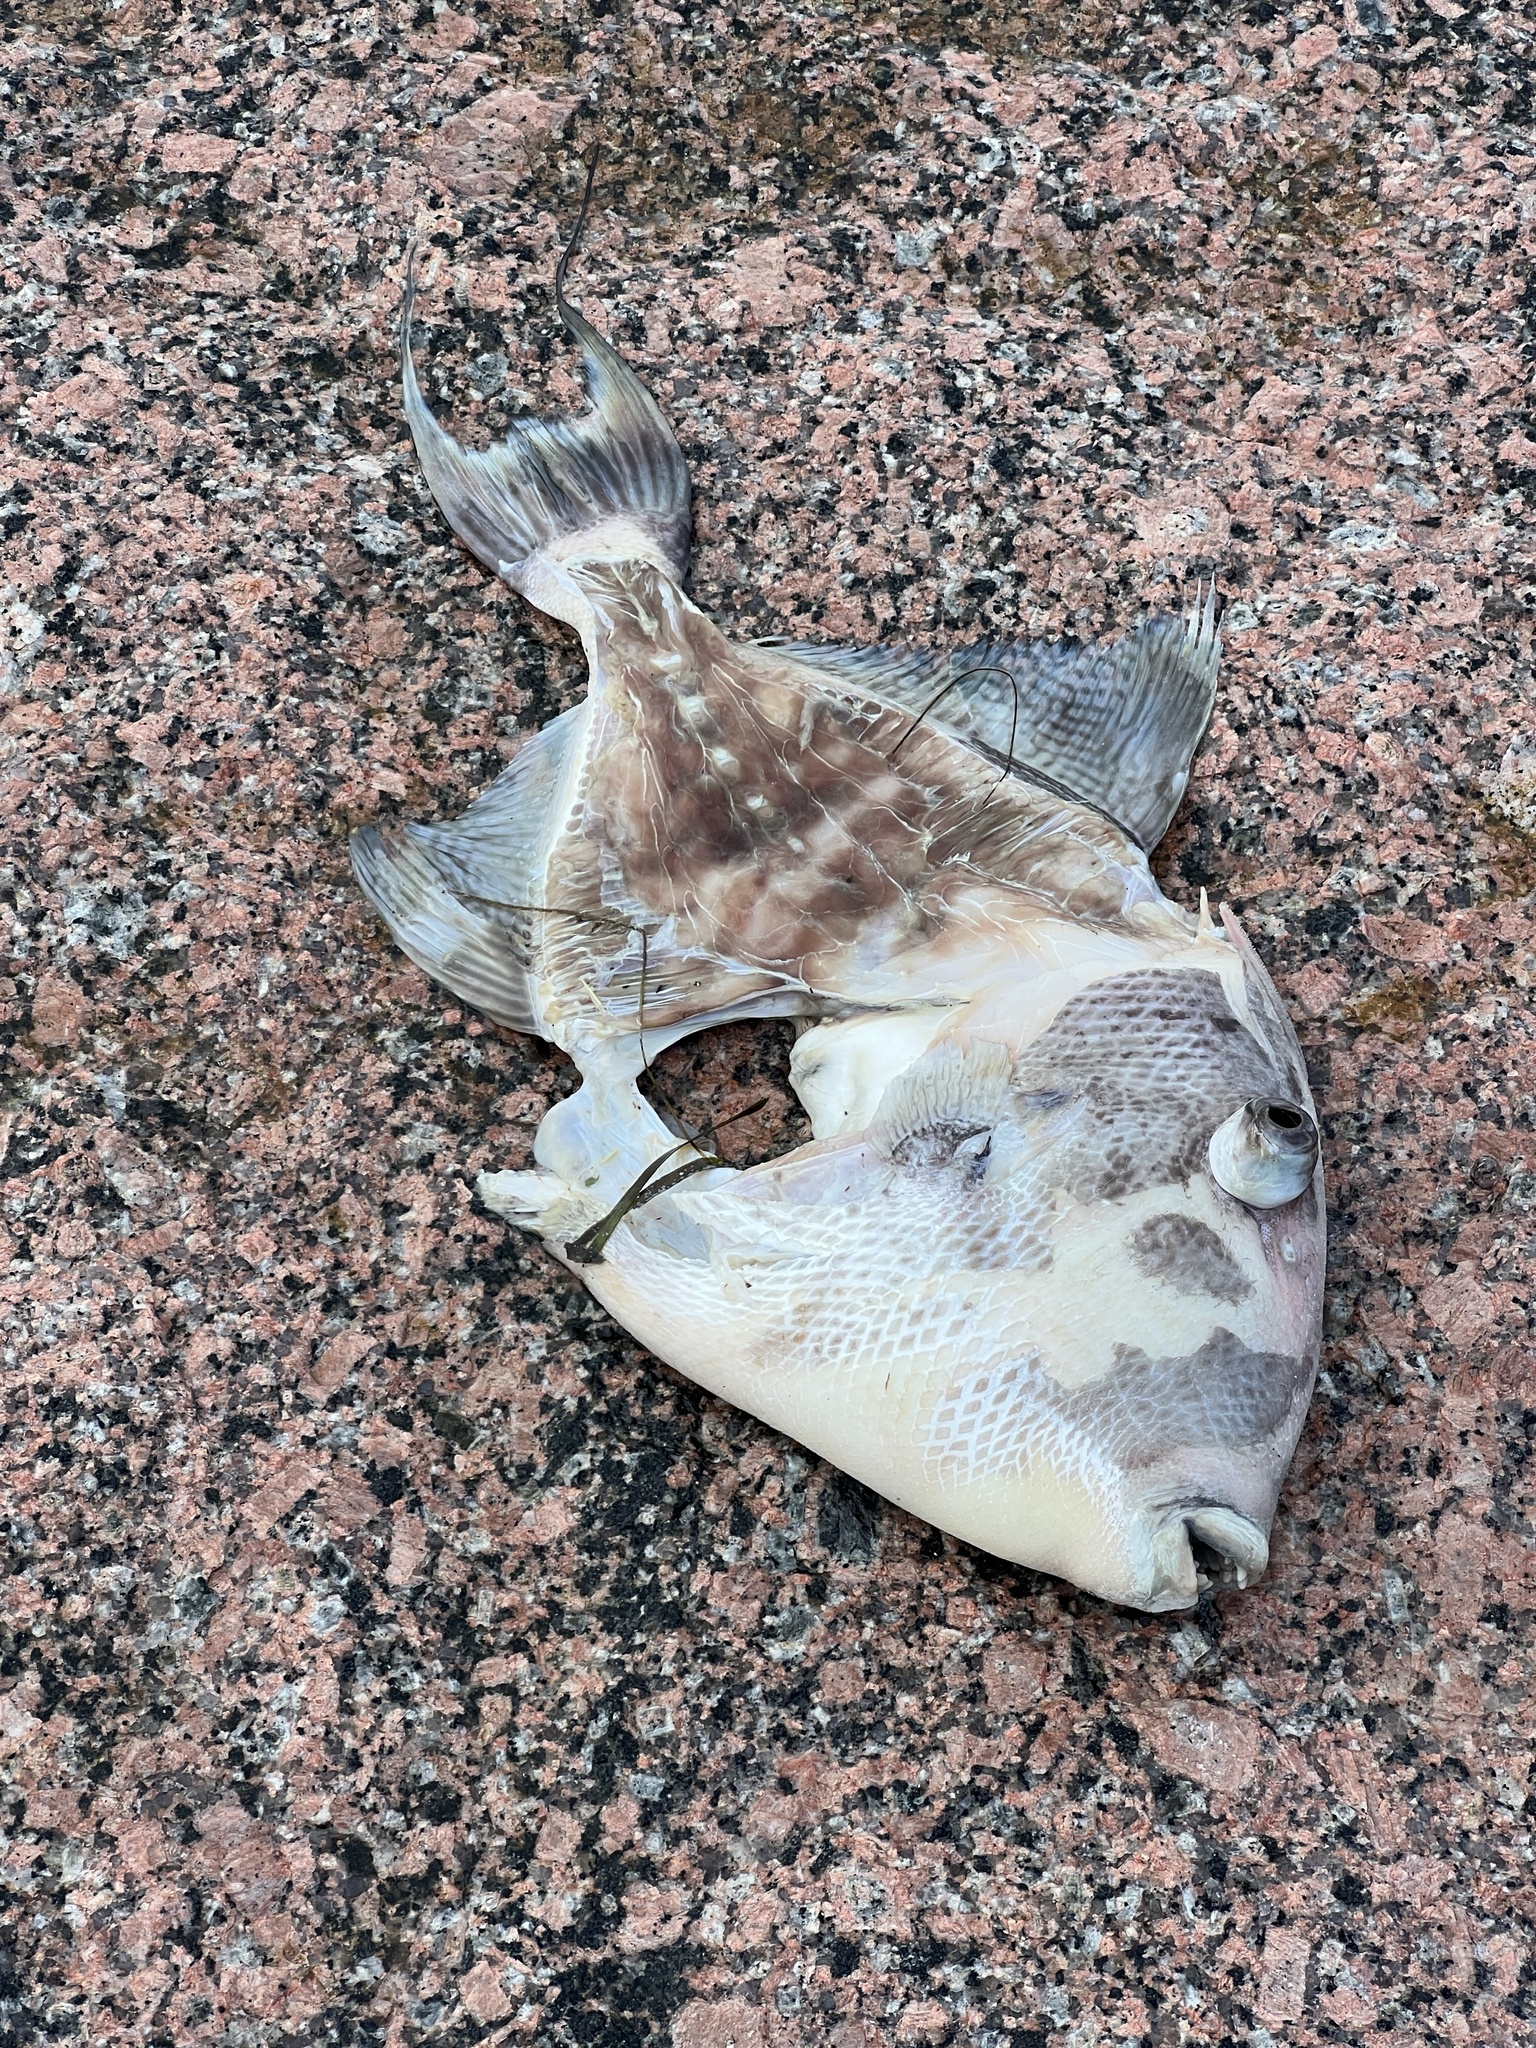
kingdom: Animalia
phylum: Chordata
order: Tetraodontiformes
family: Balistidae
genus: Balistes
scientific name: Balistes capriscus
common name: Grey triggerfish
